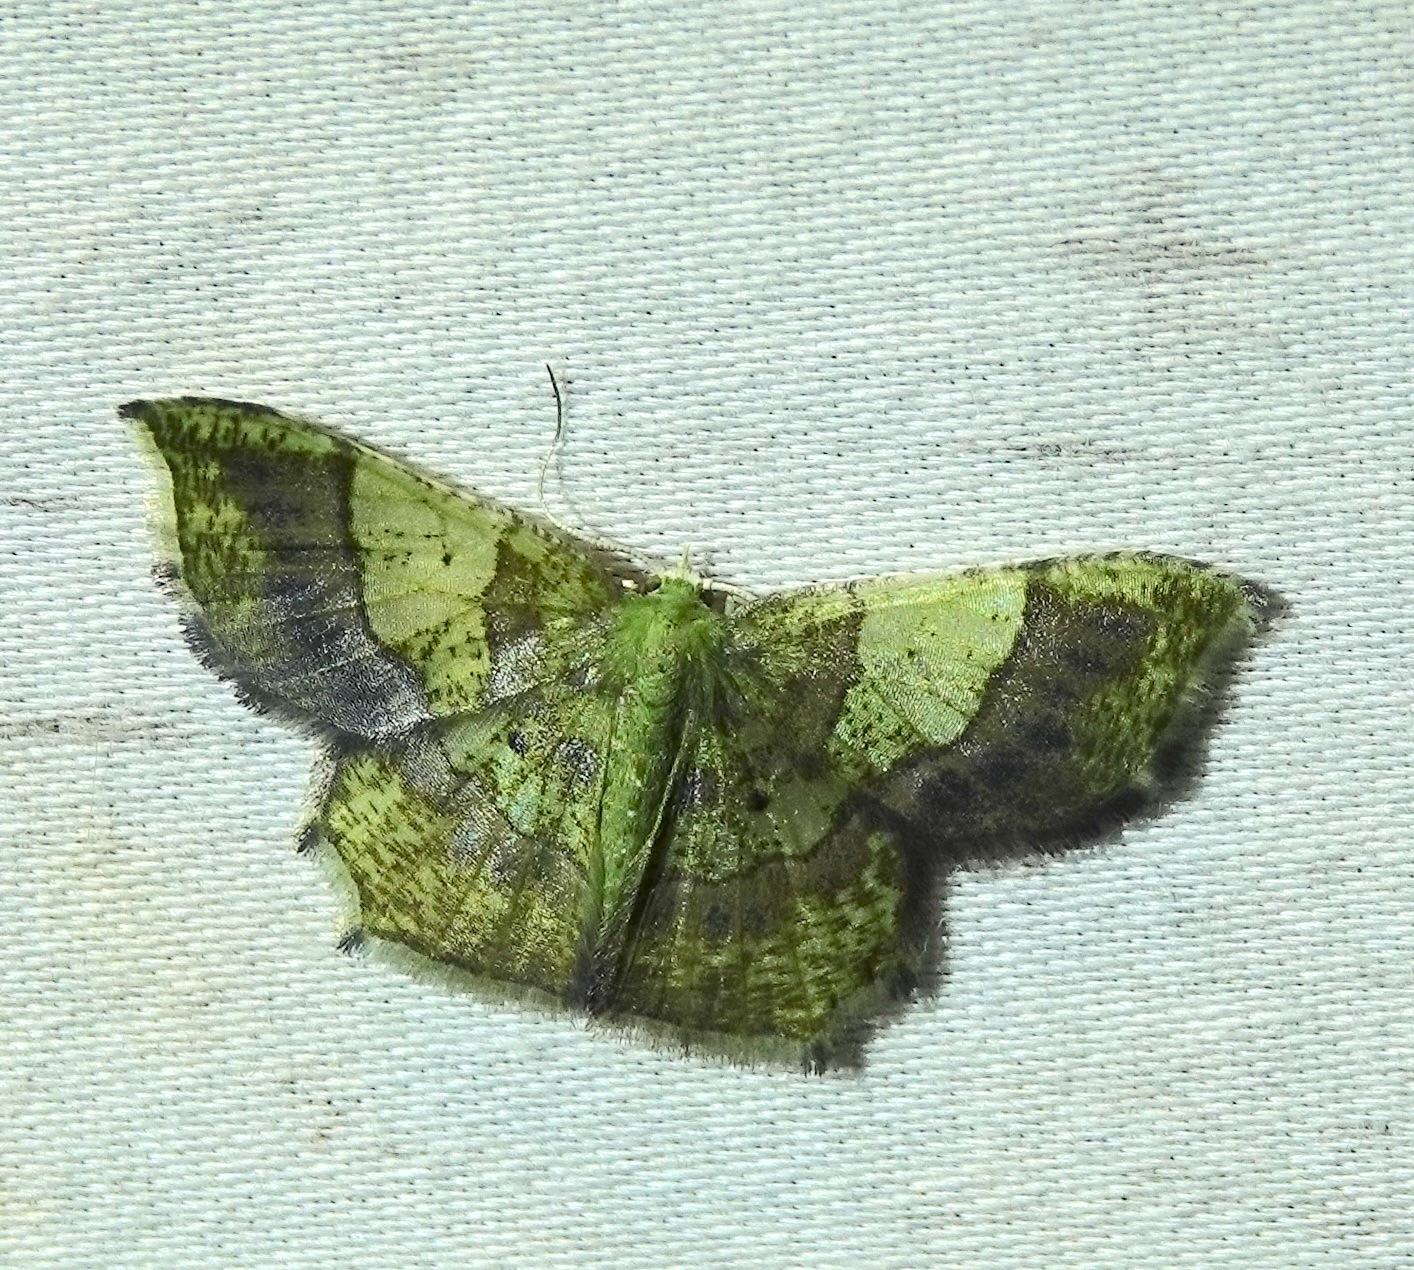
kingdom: Animalia
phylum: Arthropoda
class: Insecta
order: Lepidoptera
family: Geometridae
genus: Neagathia
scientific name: Neagathia corruptata
